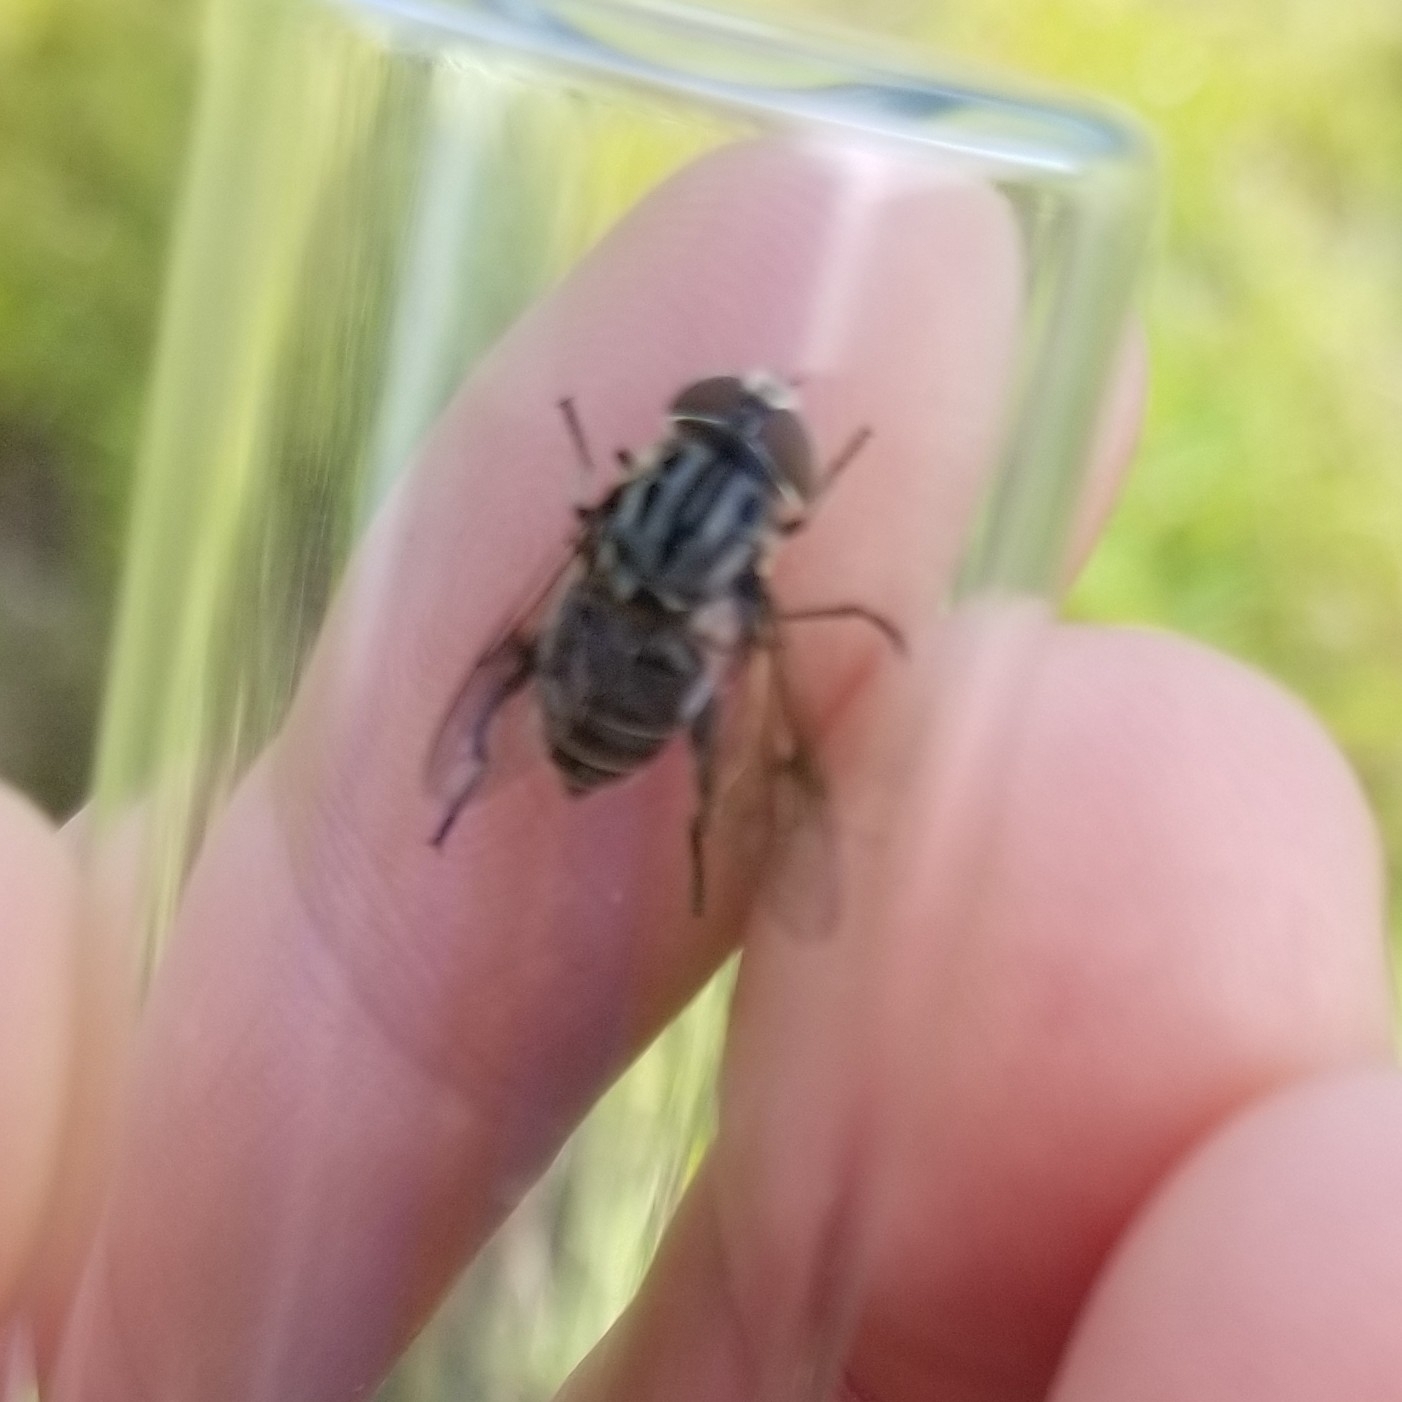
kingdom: Animalia
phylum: Arthropoda
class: Insecta
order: Diptera
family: Syrphidae
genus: Palpada
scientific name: Palpada furcata
